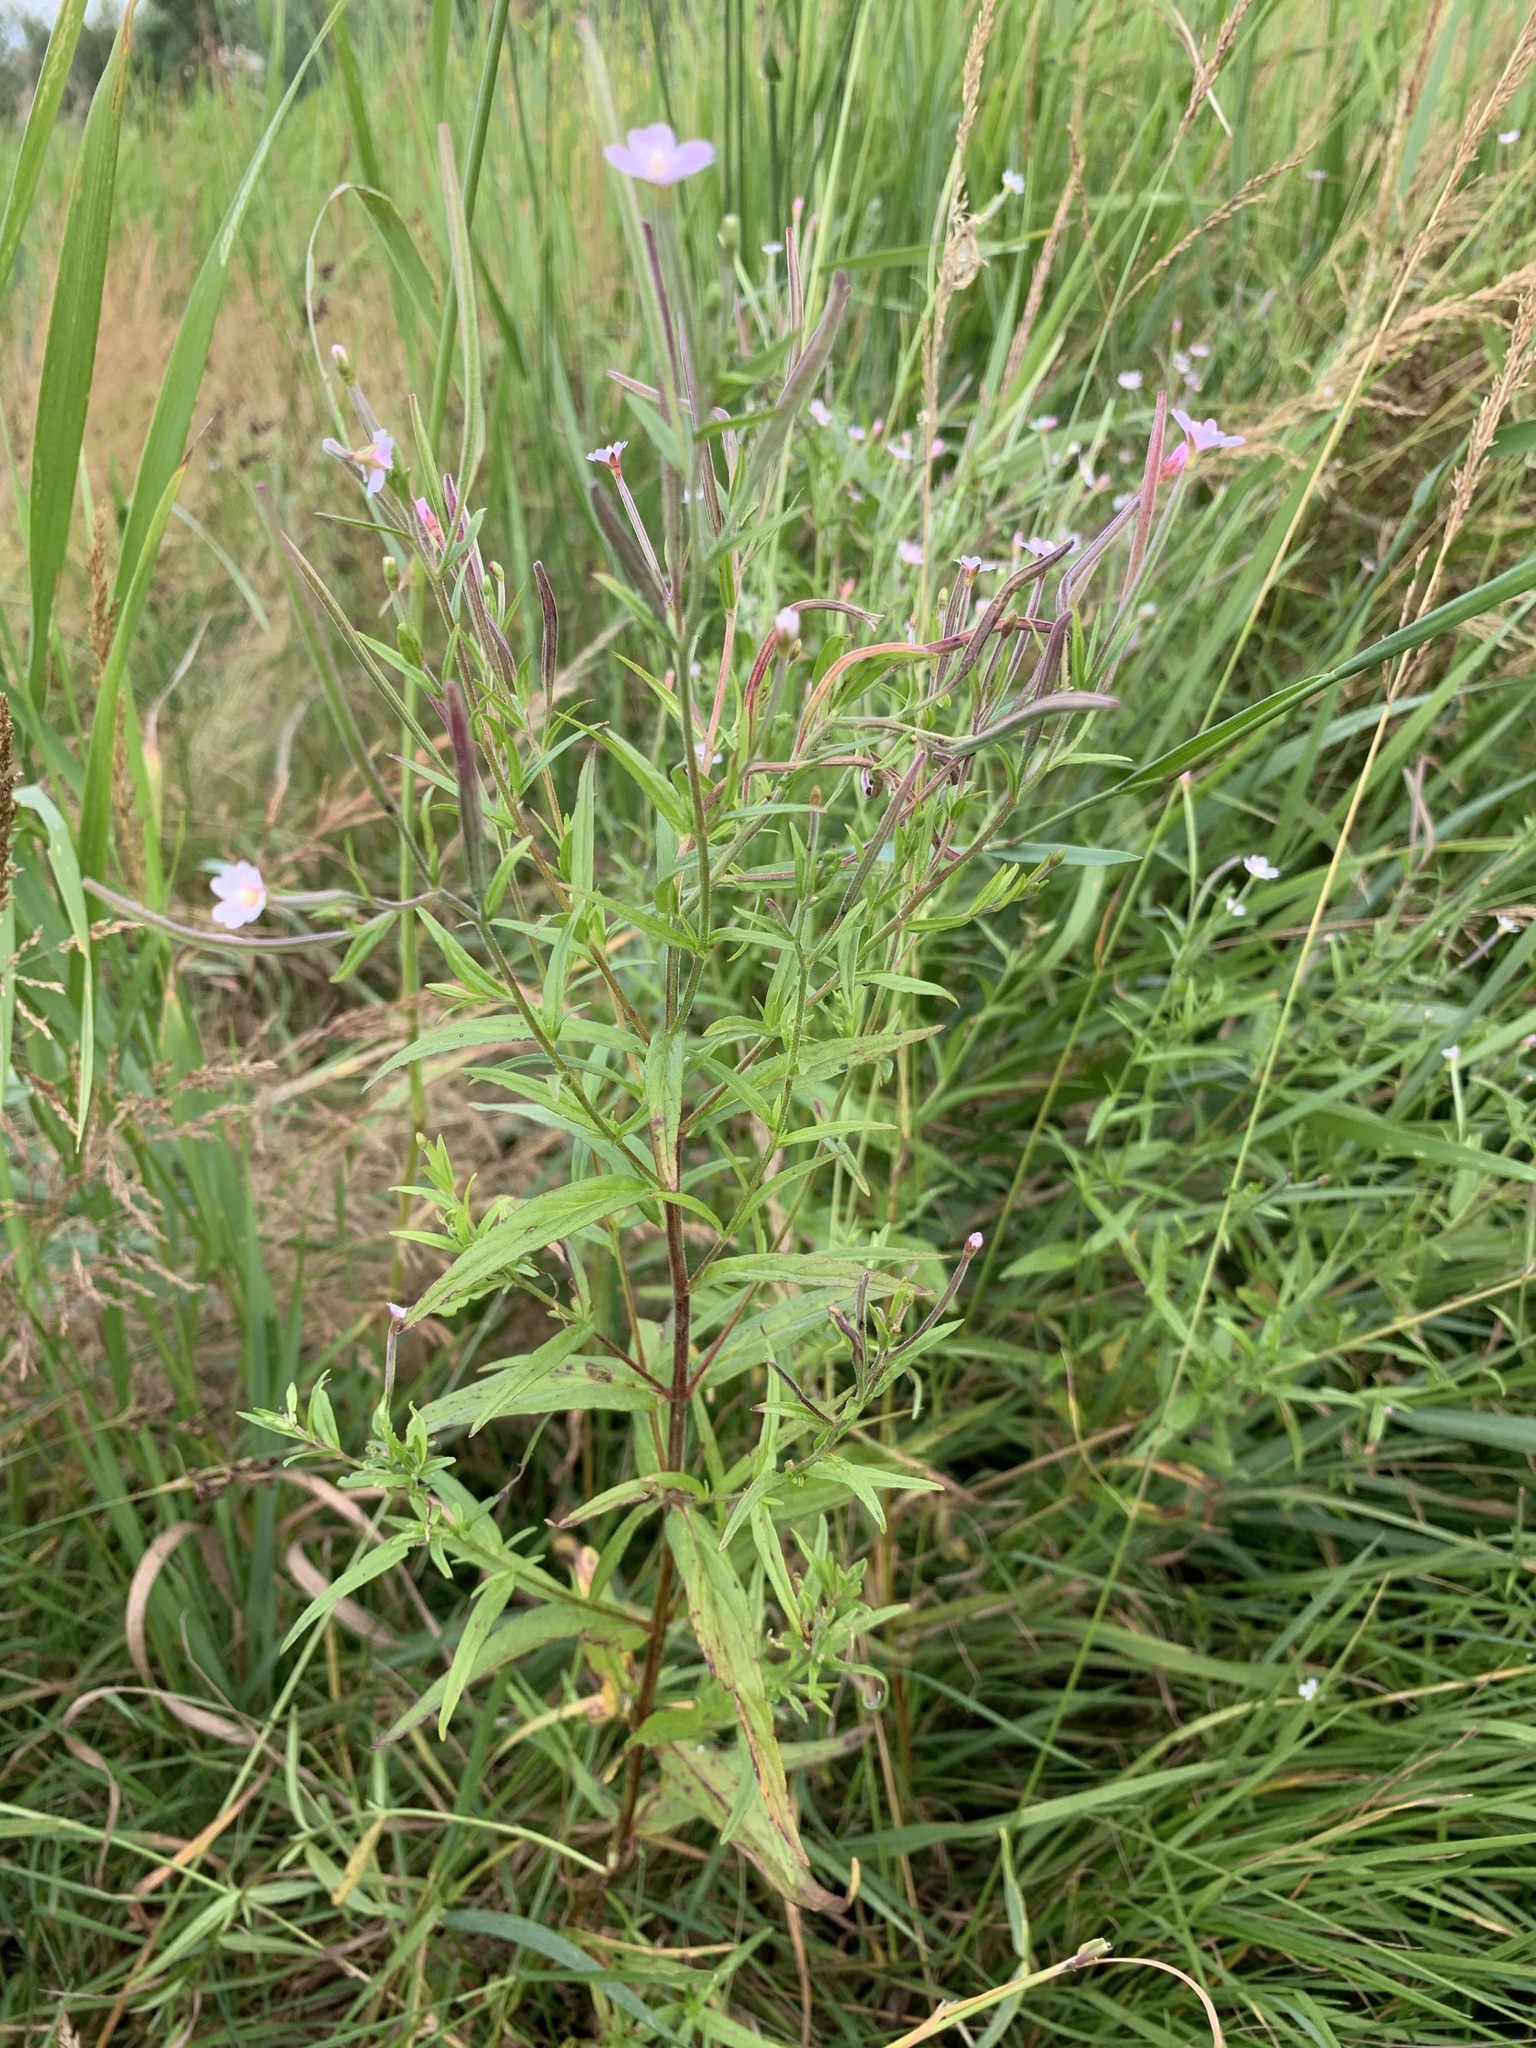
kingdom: Plantae
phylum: Tracheophyta
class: Magnoliopsida
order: Myrtales
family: Onagraceae
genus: Epilobium
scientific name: Epilobium palustre
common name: Marsh willowherb
